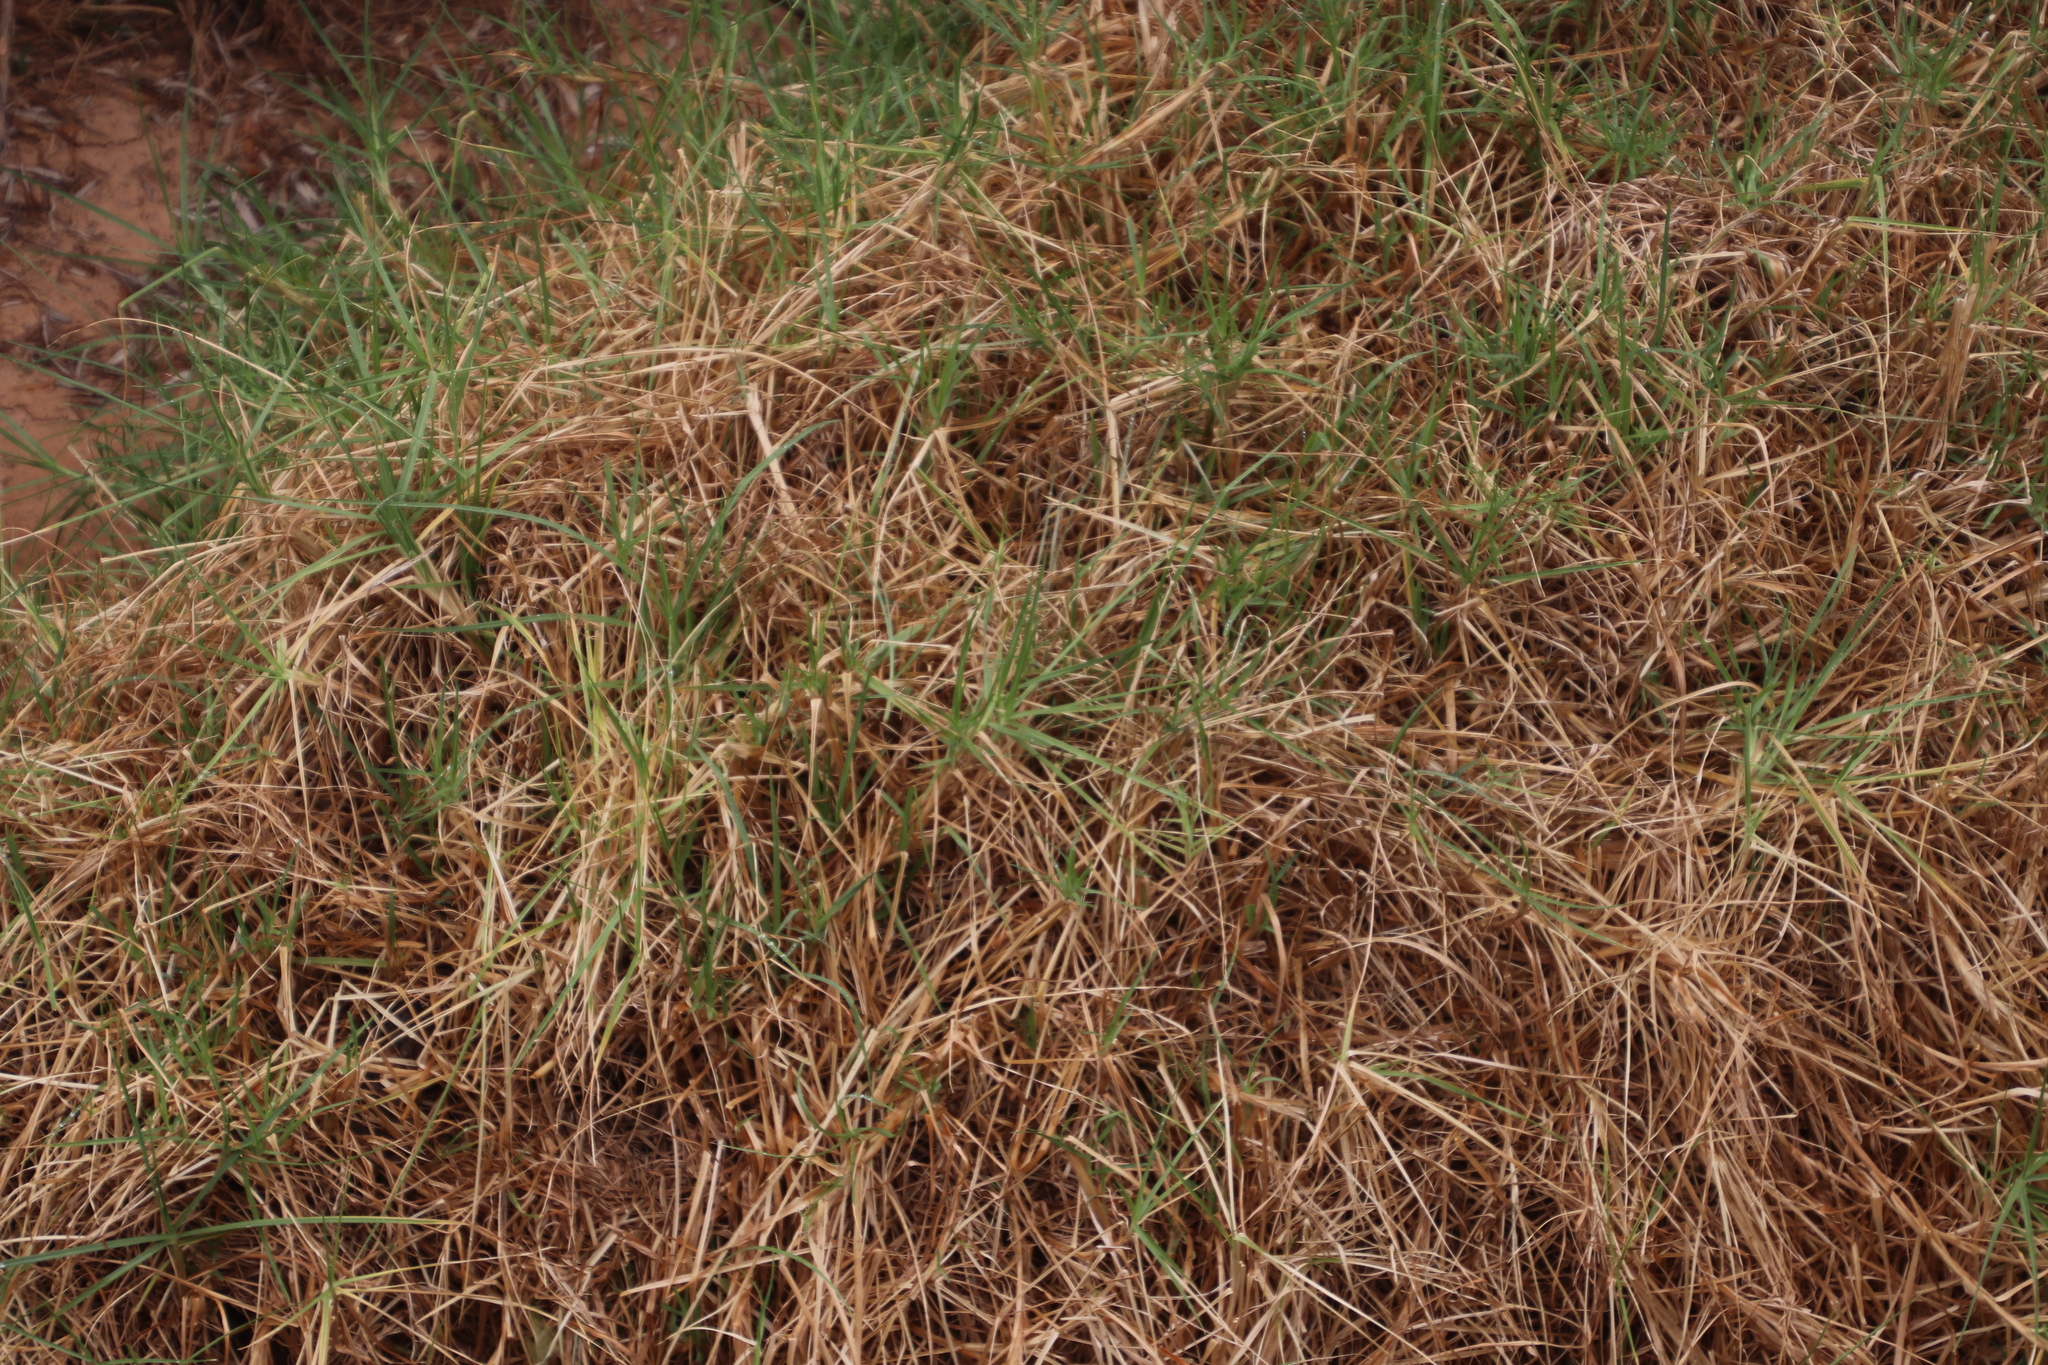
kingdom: Plantae
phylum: Tracheophyta
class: Liliopsida
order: Poales
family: Poaceae
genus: Cenchrus
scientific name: Cenchrus clandestinus
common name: Kikuyugrass
